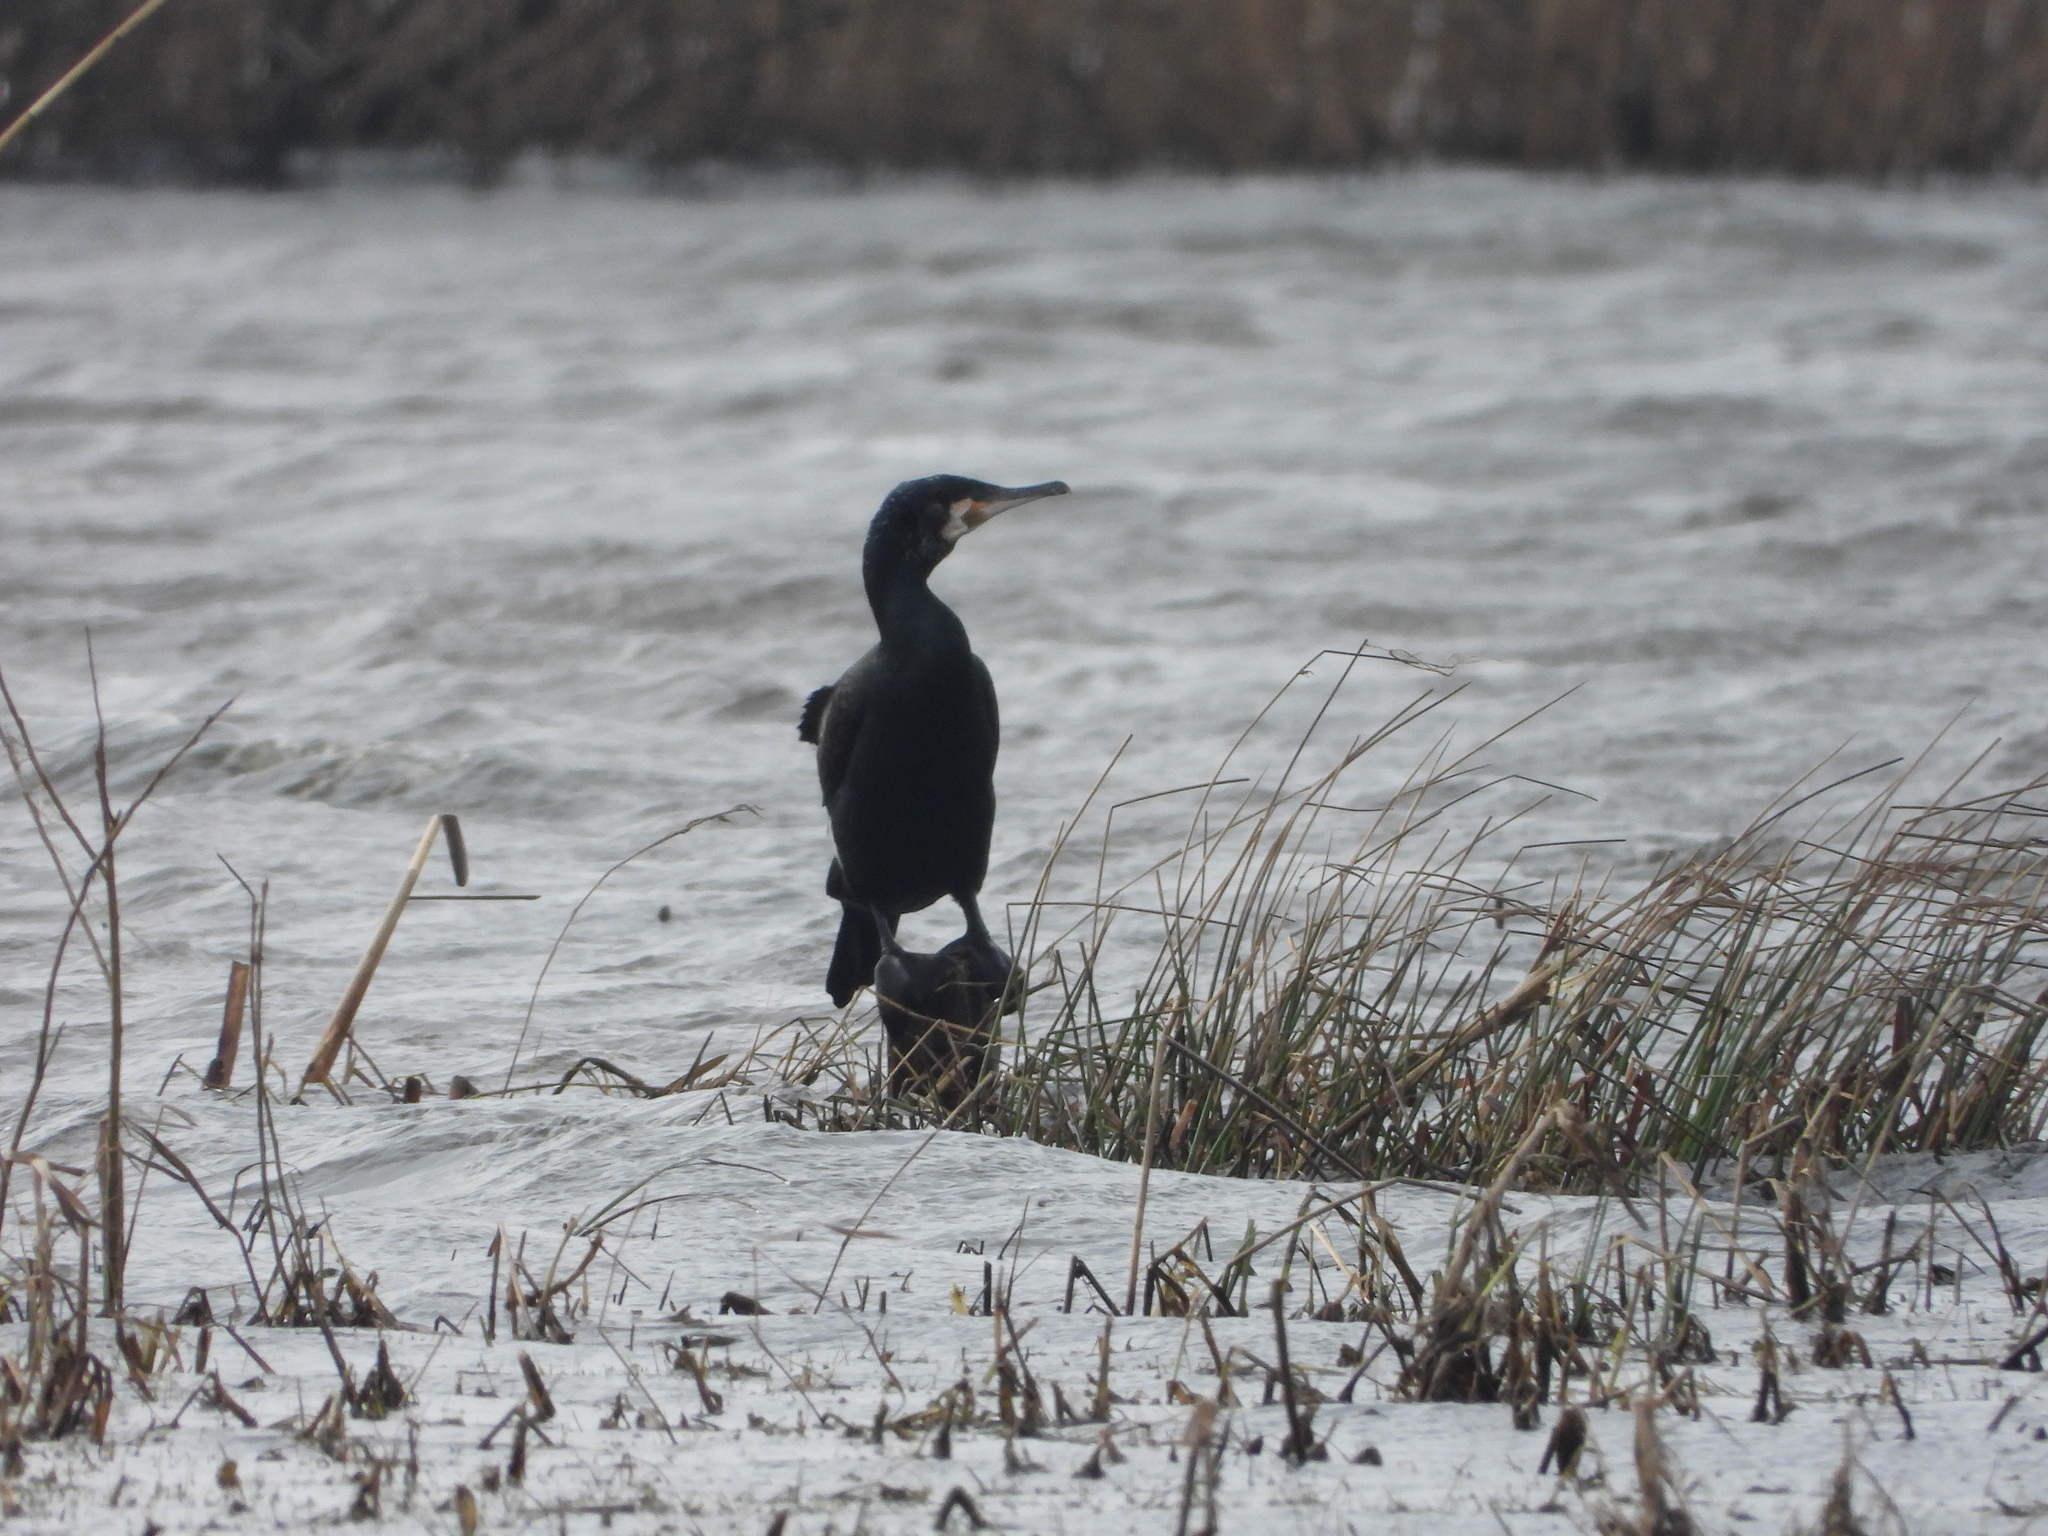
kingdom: Animalia
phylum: Chordata
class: Aves
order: Suliformes
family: Phalacrocoracidae
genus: Phalacrocorax
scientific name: Phalacrocorax carbo
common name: Great cormorant
